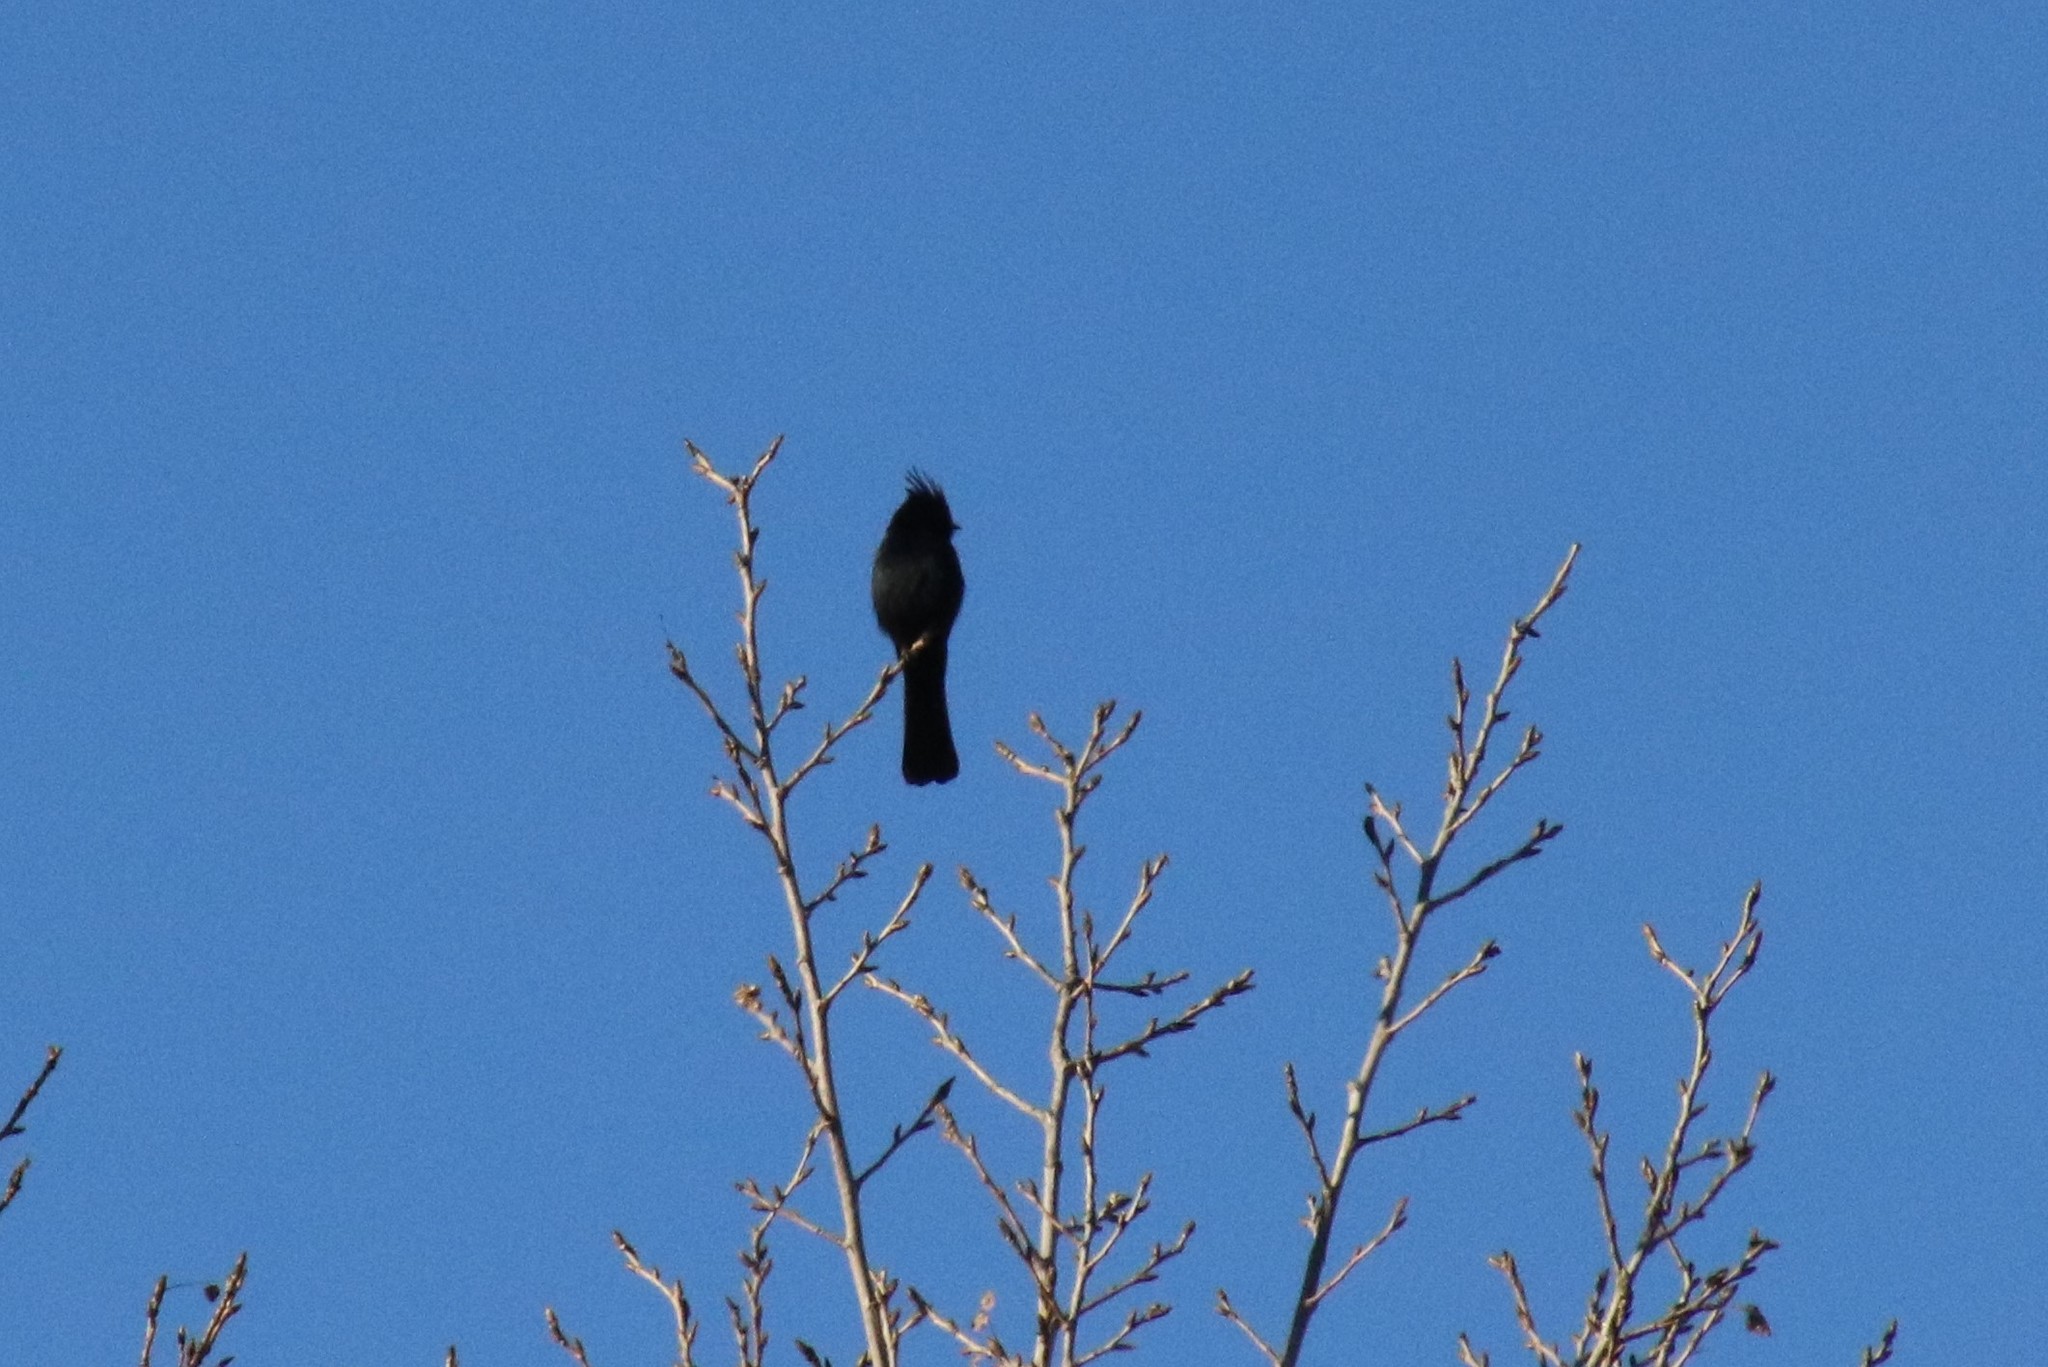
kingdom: Animalia
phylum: Chordata
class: Aves
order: Passeriformes
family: Ptilogonatidae
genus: Phainopepla
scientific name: Phainopepla nitens
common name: Phainopepla
